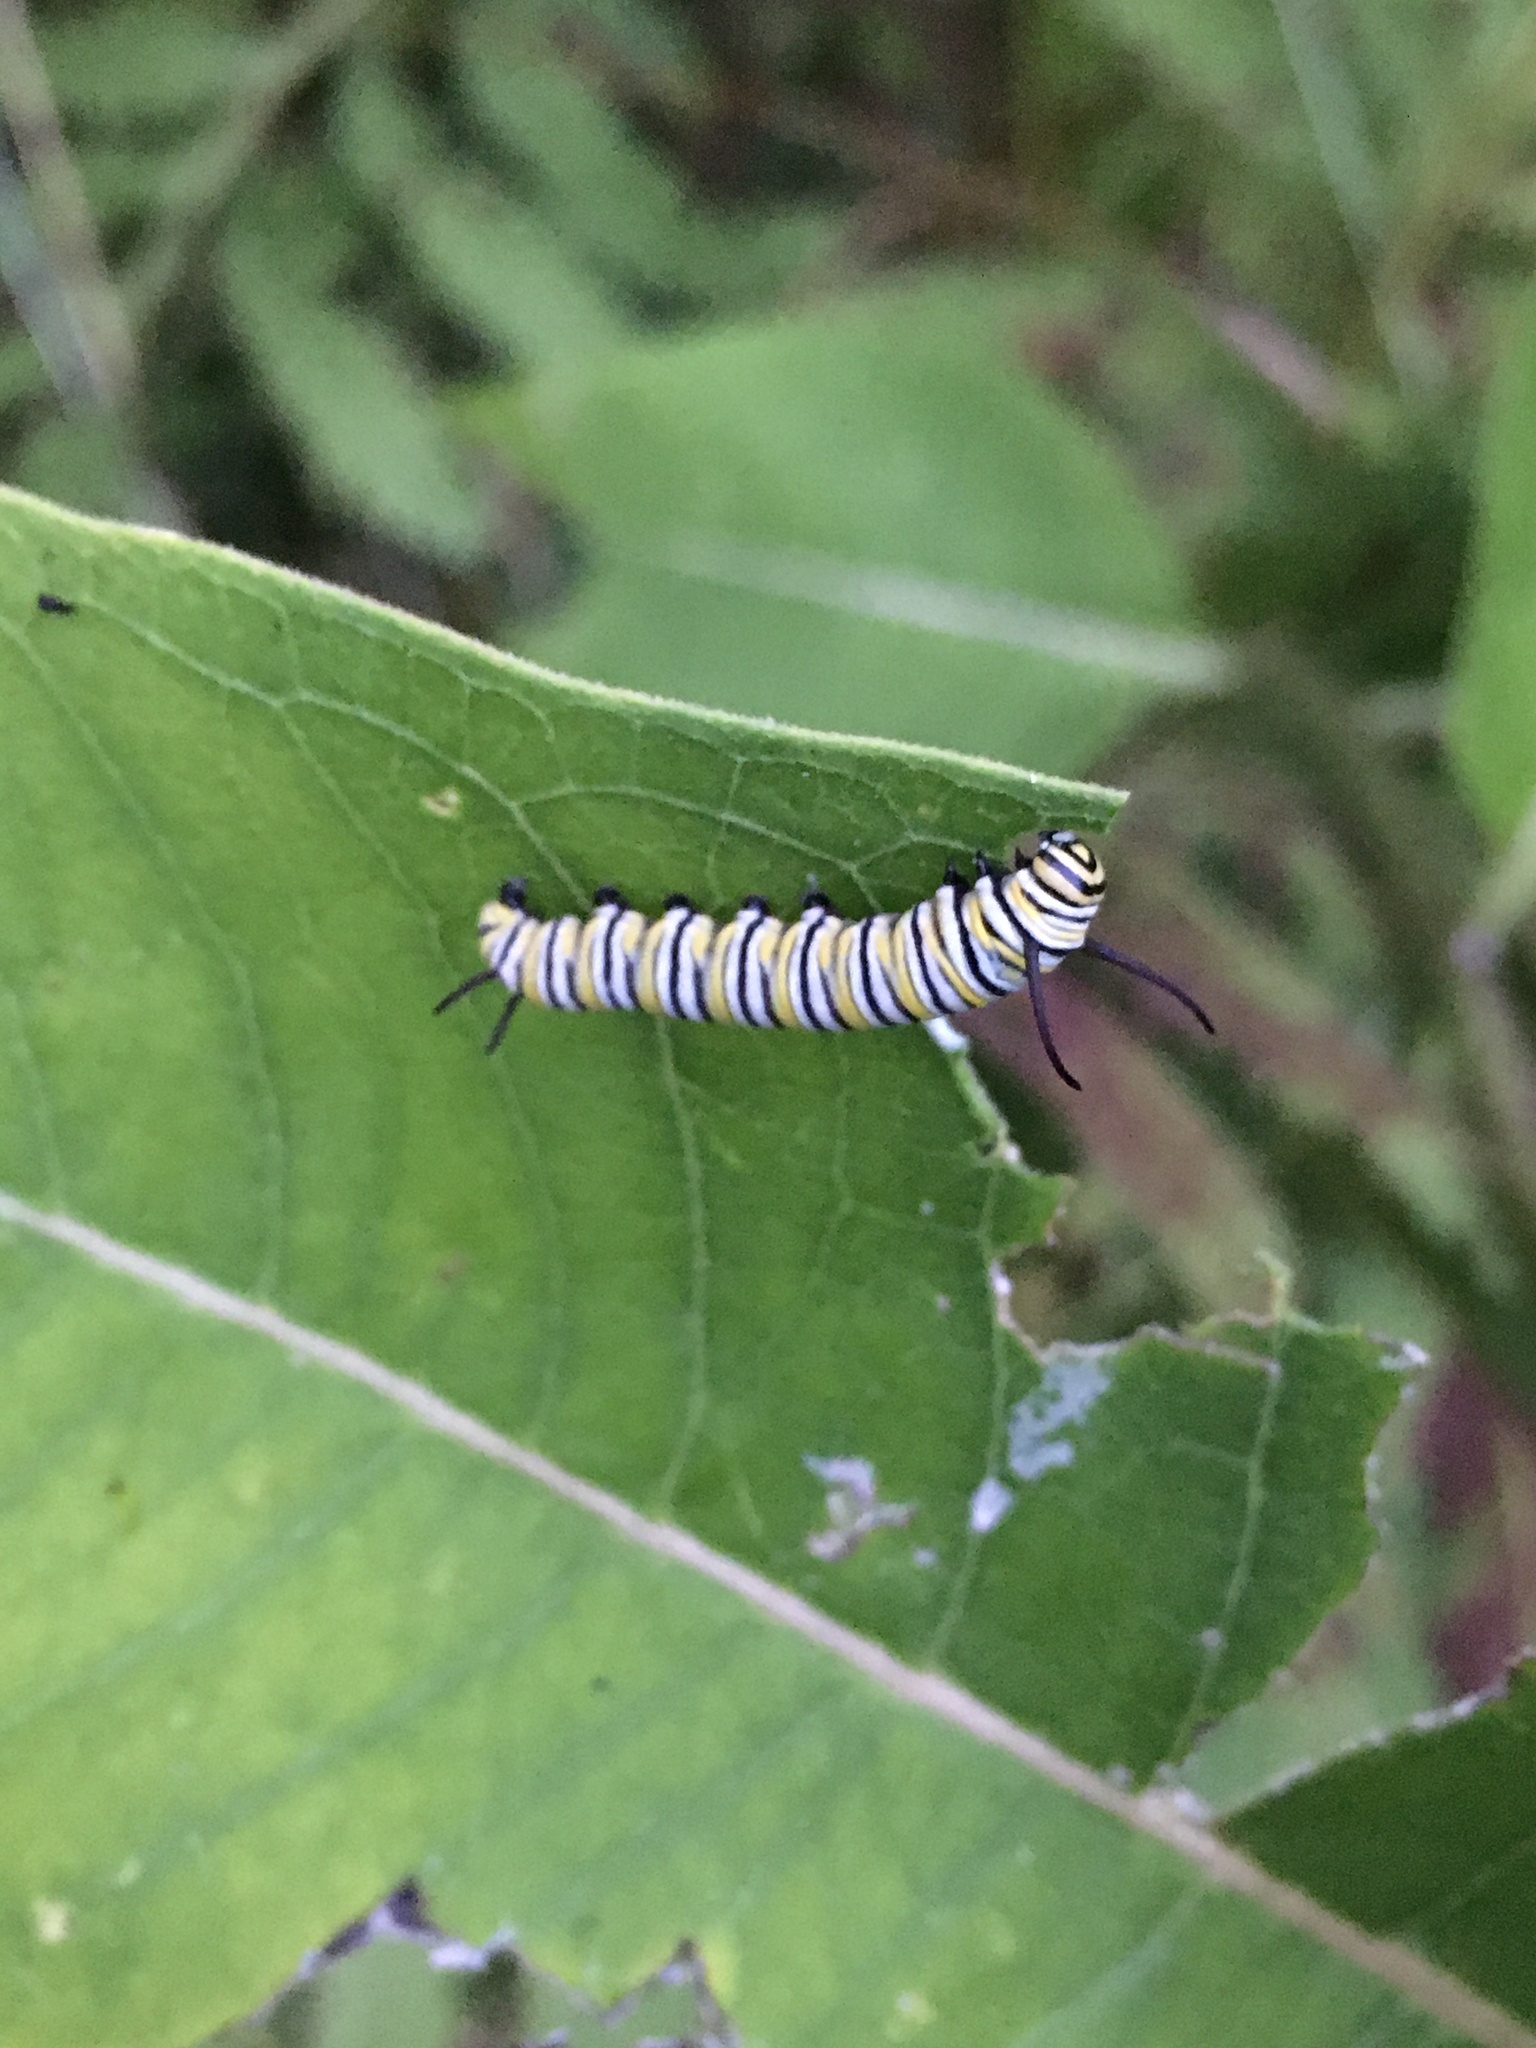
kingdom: Animalia
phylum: Arthropoda
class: Insecta
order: Lepidoptera
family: Nymphalidae
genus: Danaus
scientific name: Danaus plexippus
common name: Monarch
